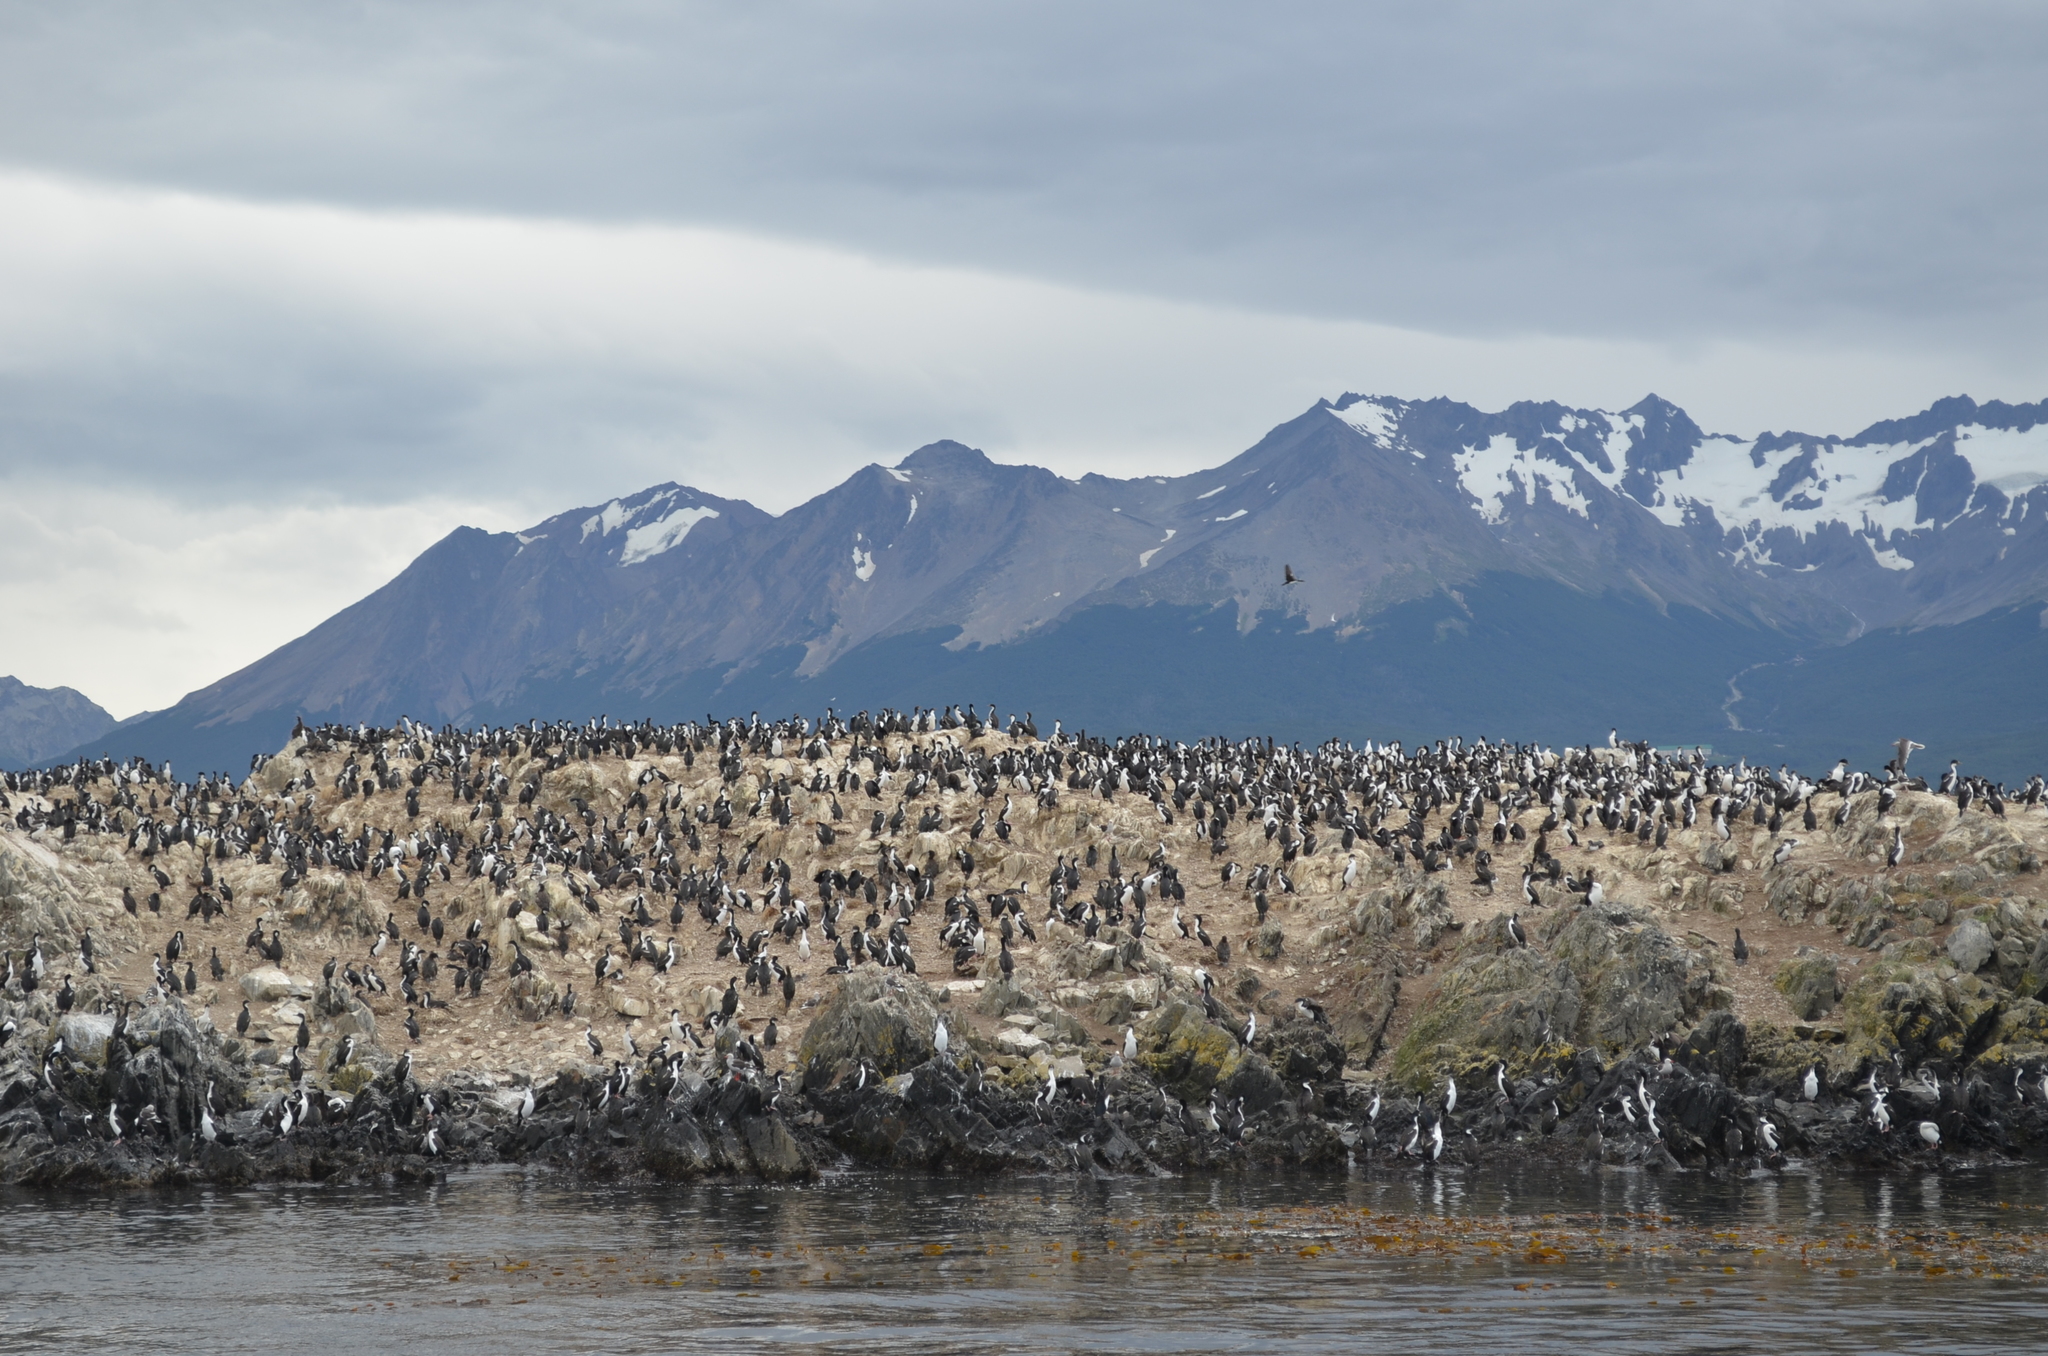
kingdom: Animalia
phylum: Chordata
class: Aves
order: Suliformes
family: Phalacrocoracidae
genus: Leucocarbo
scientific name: Leucocarbo atriceps
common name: Imperial shag
